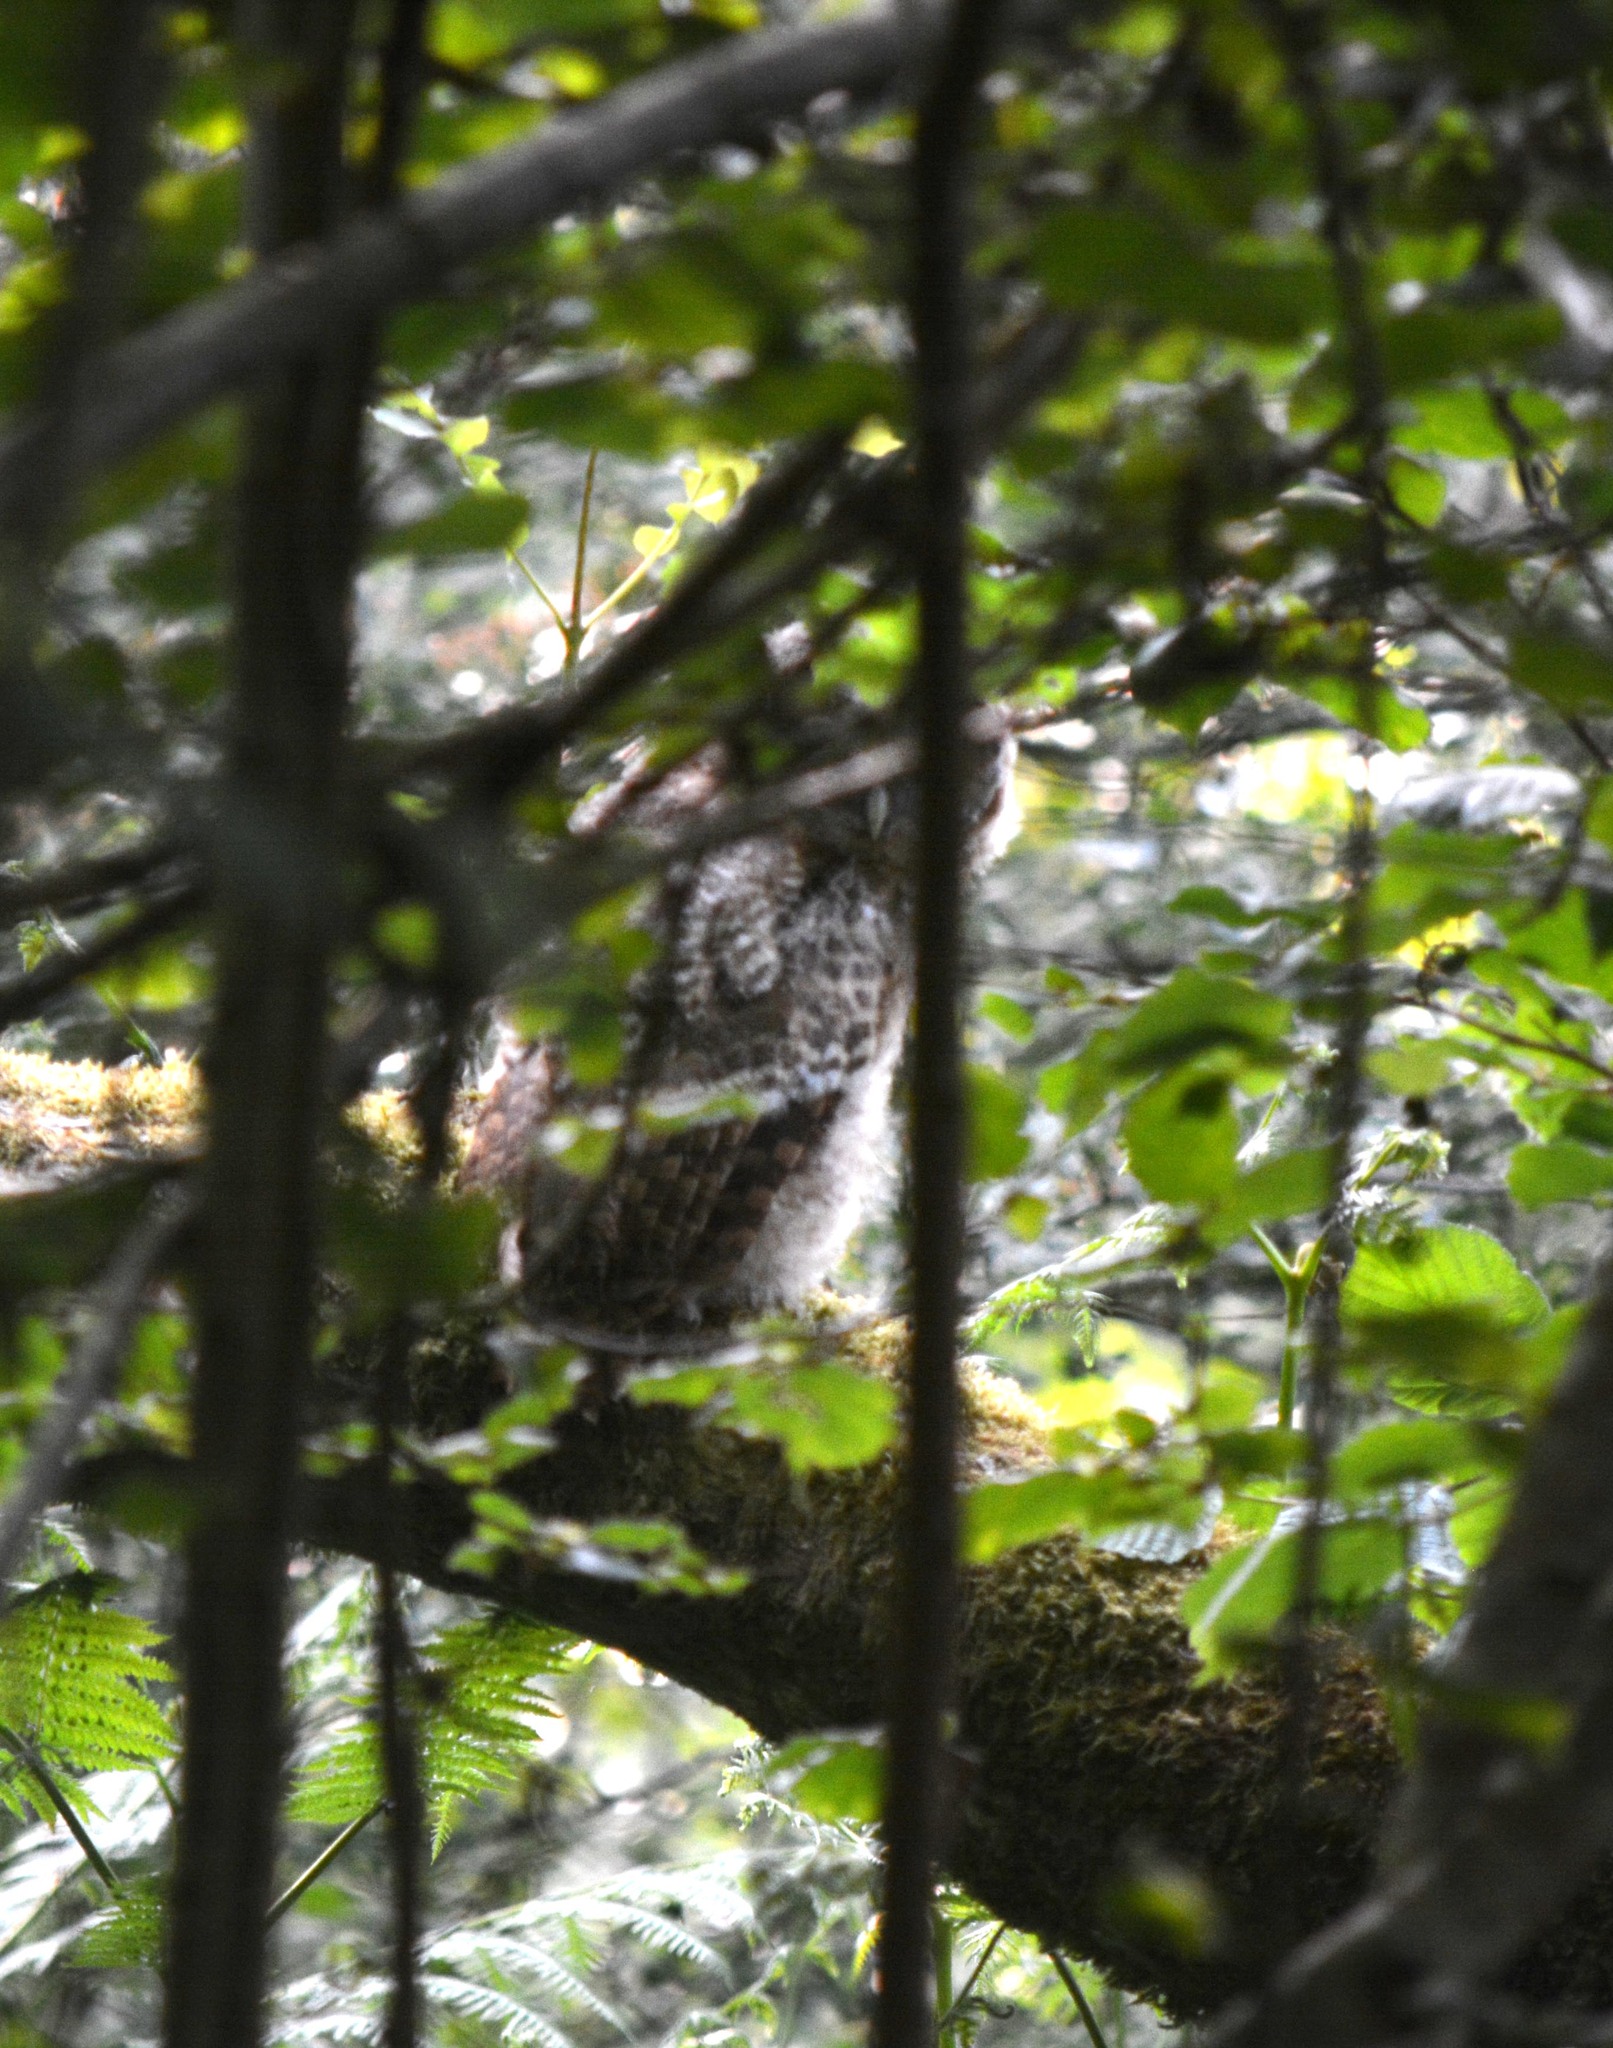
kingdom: Animalia
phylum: Chordata
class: Aves
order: Strigiformes
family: Strigidae
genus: Strix
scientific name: Strix aluco
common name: Tawny owl
